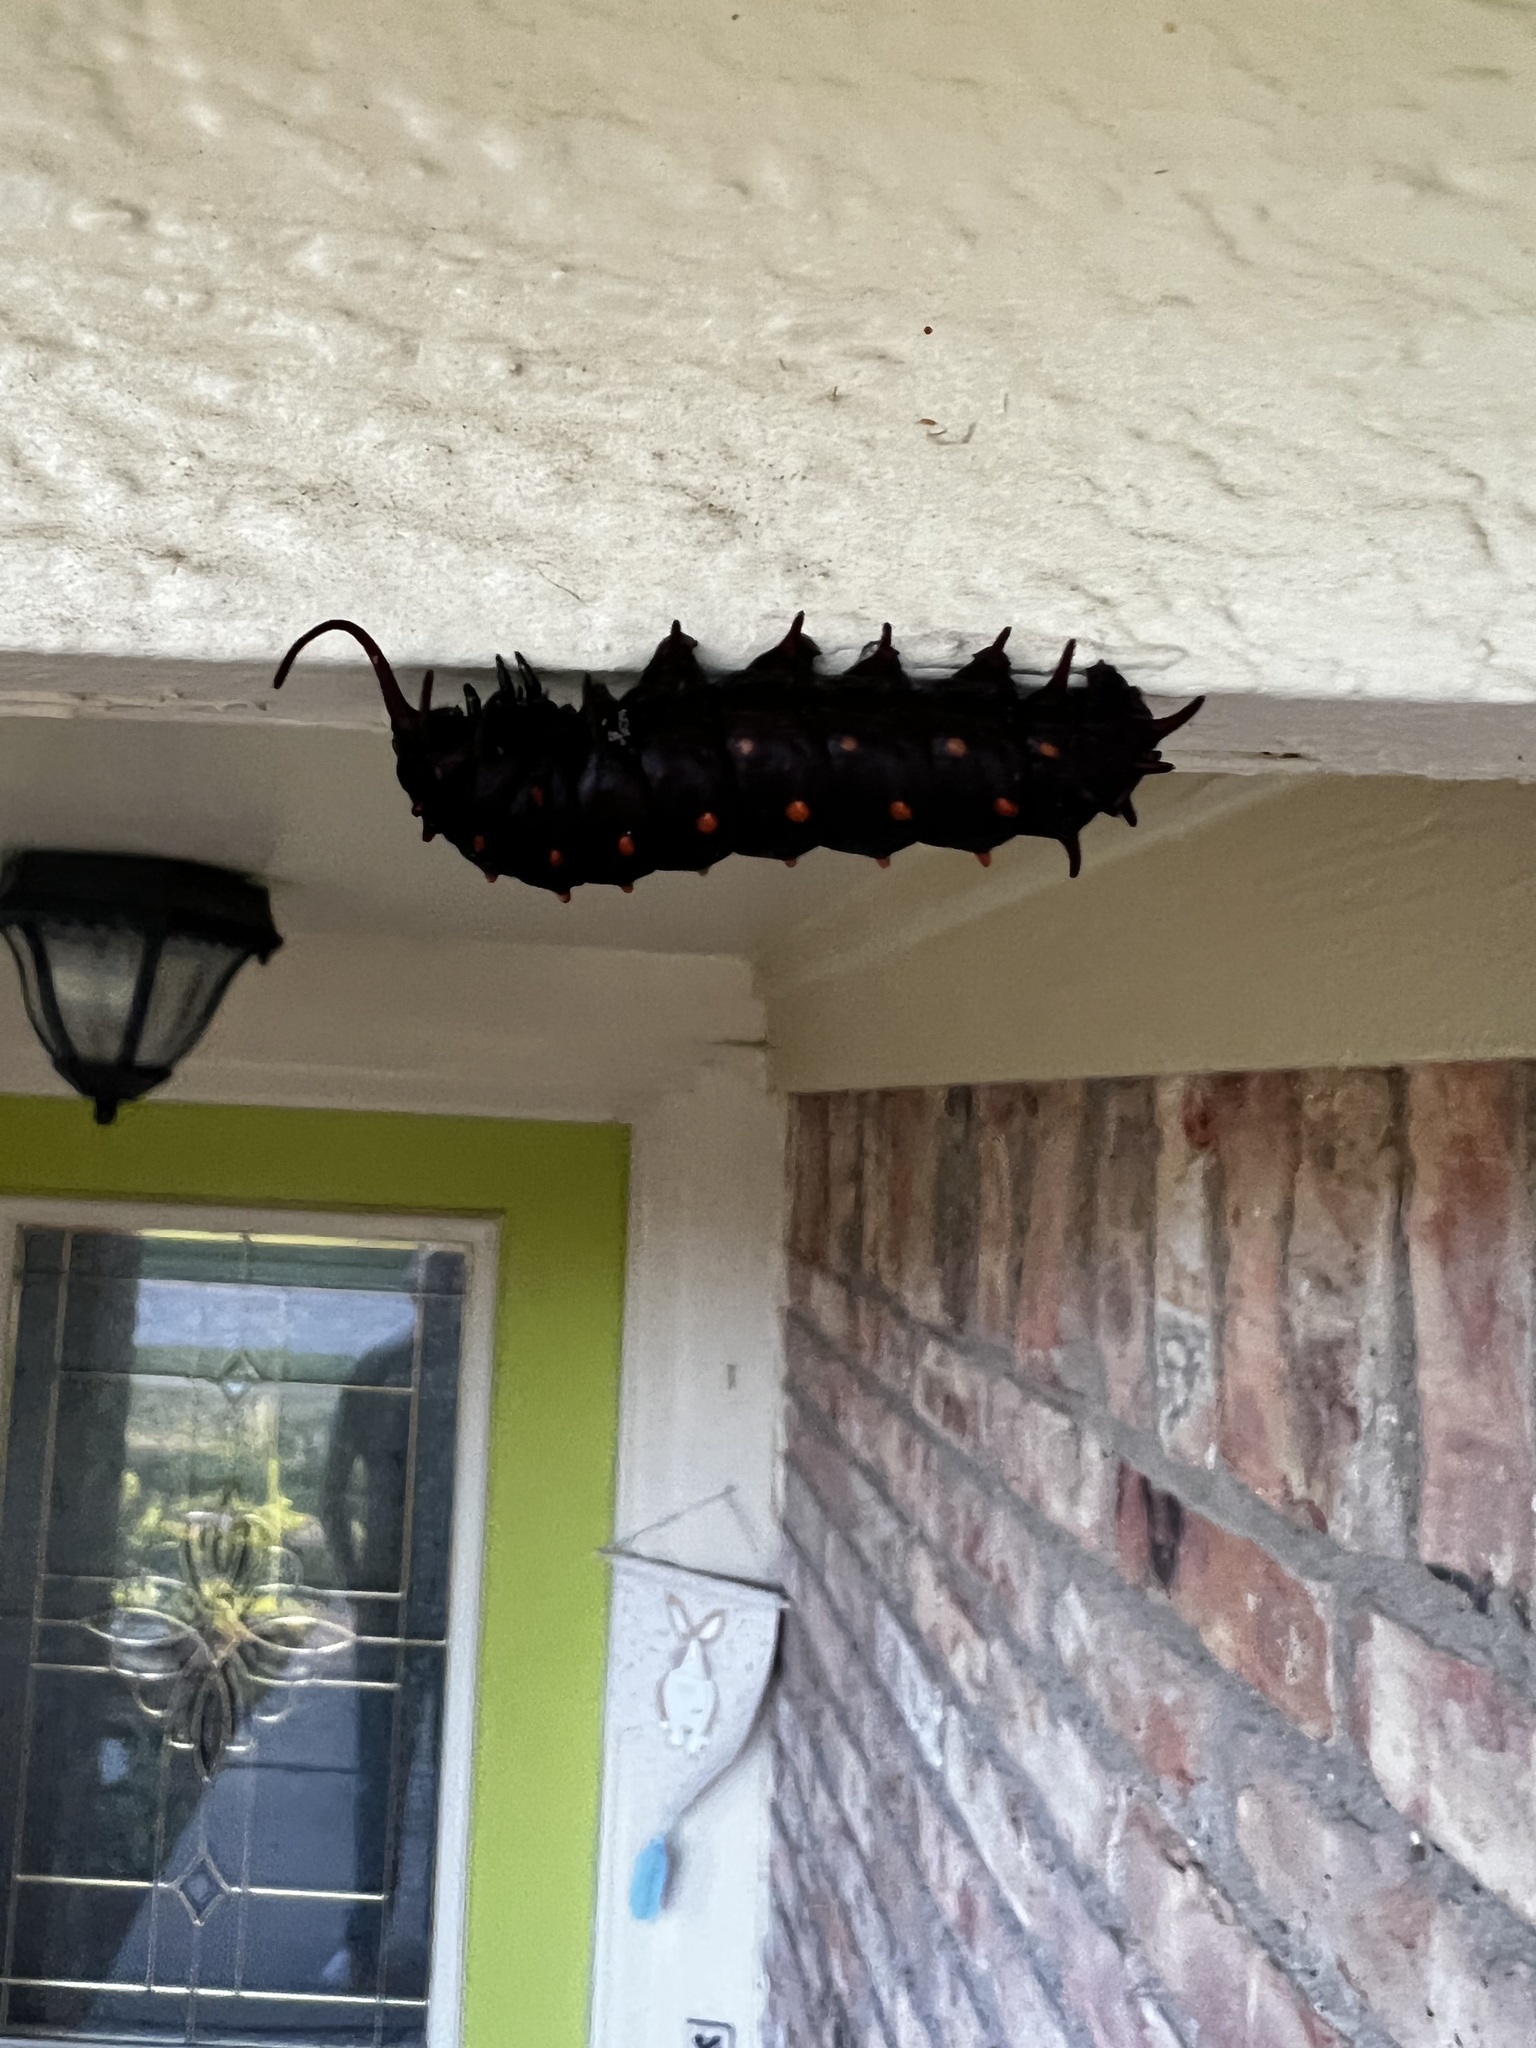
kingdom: Animalia
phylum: Arthropoda
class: Insecta
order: Lepidoptera
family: Papilionidae
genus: Battus
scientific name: Battus philenor
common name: Pipevine swallowtail
